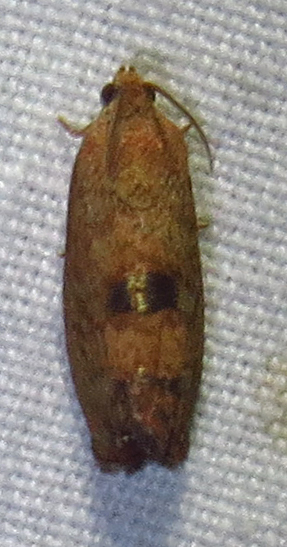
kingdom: Animalia
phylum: Arthropoda
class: Insecta
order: Lepidoptera
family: Tortricidae
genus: Cydia
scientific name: Cydia latiferreana
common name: Filbertworm moth
